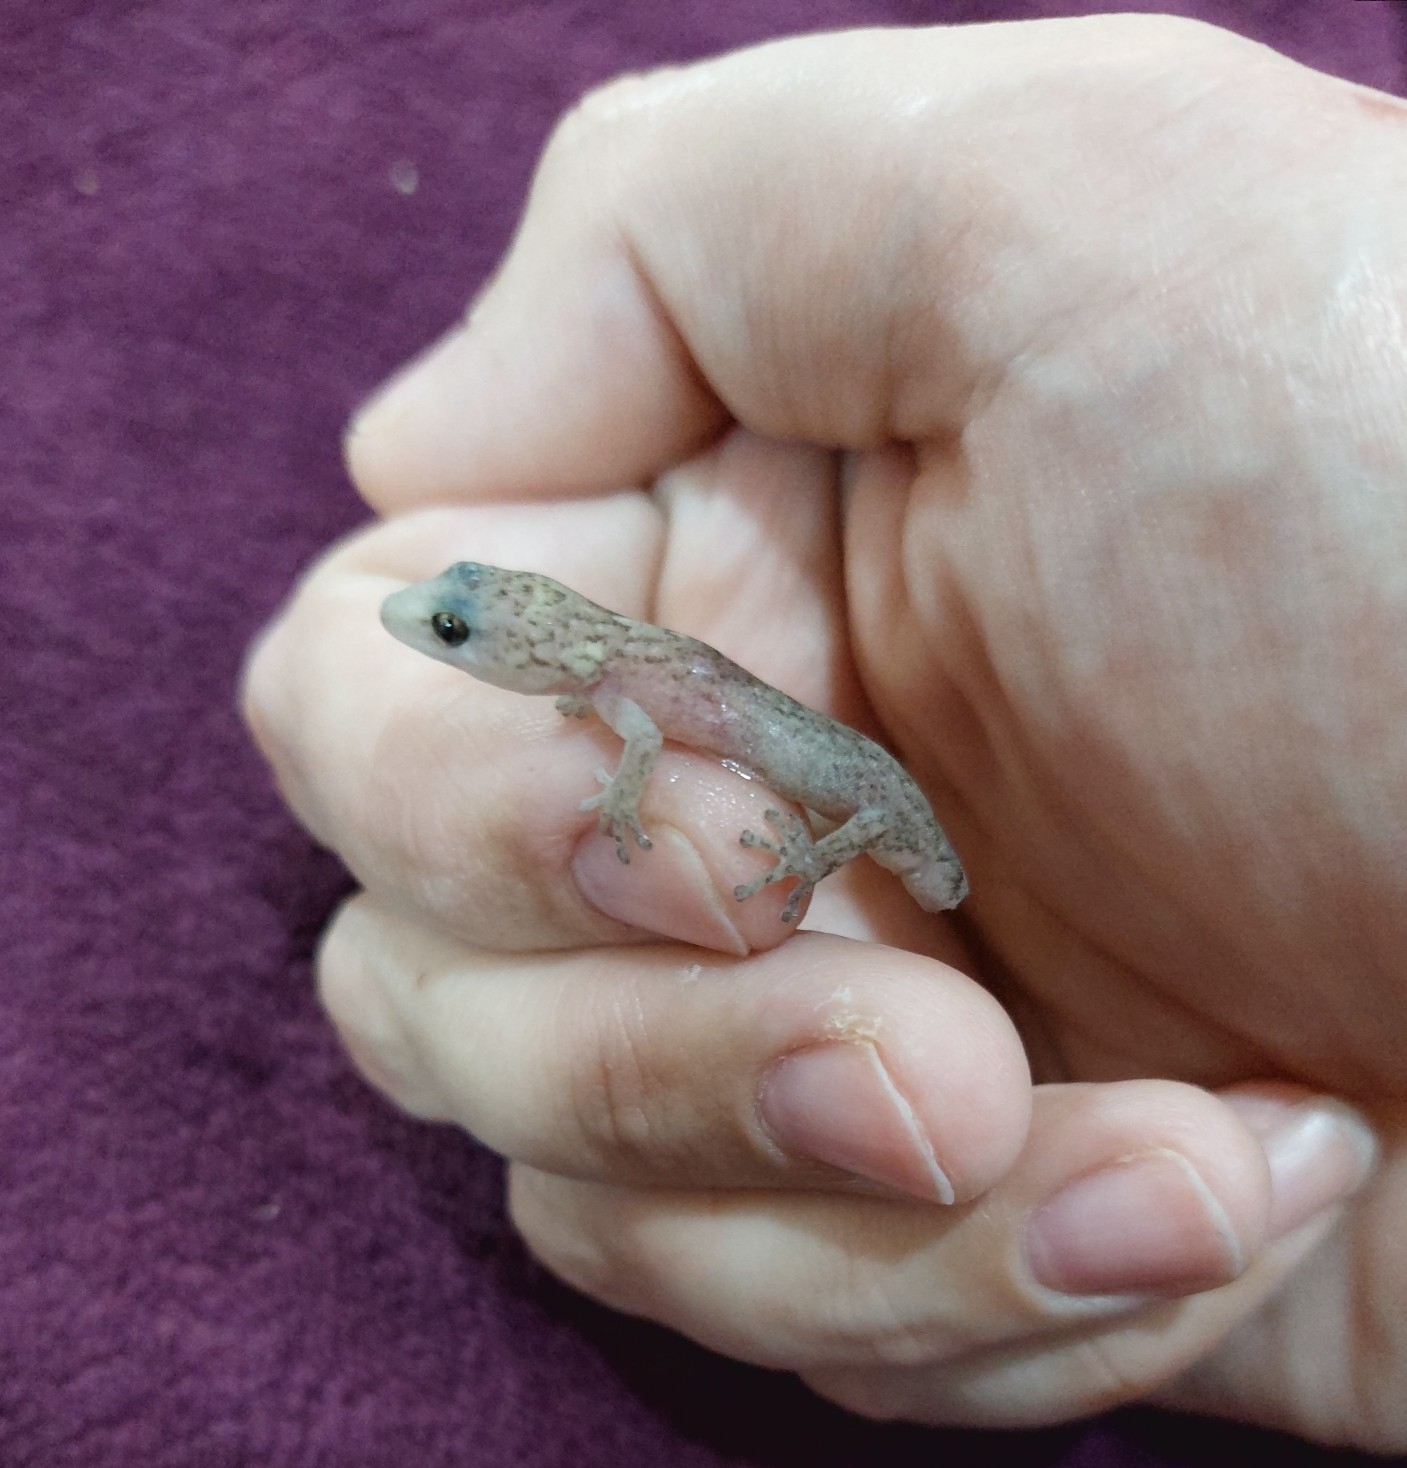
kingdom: Animalia
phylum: Chordata
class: Squamata
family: Gekkonidae
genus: Christinus
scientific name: Christinus marmoratus
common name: Marbled gecko
